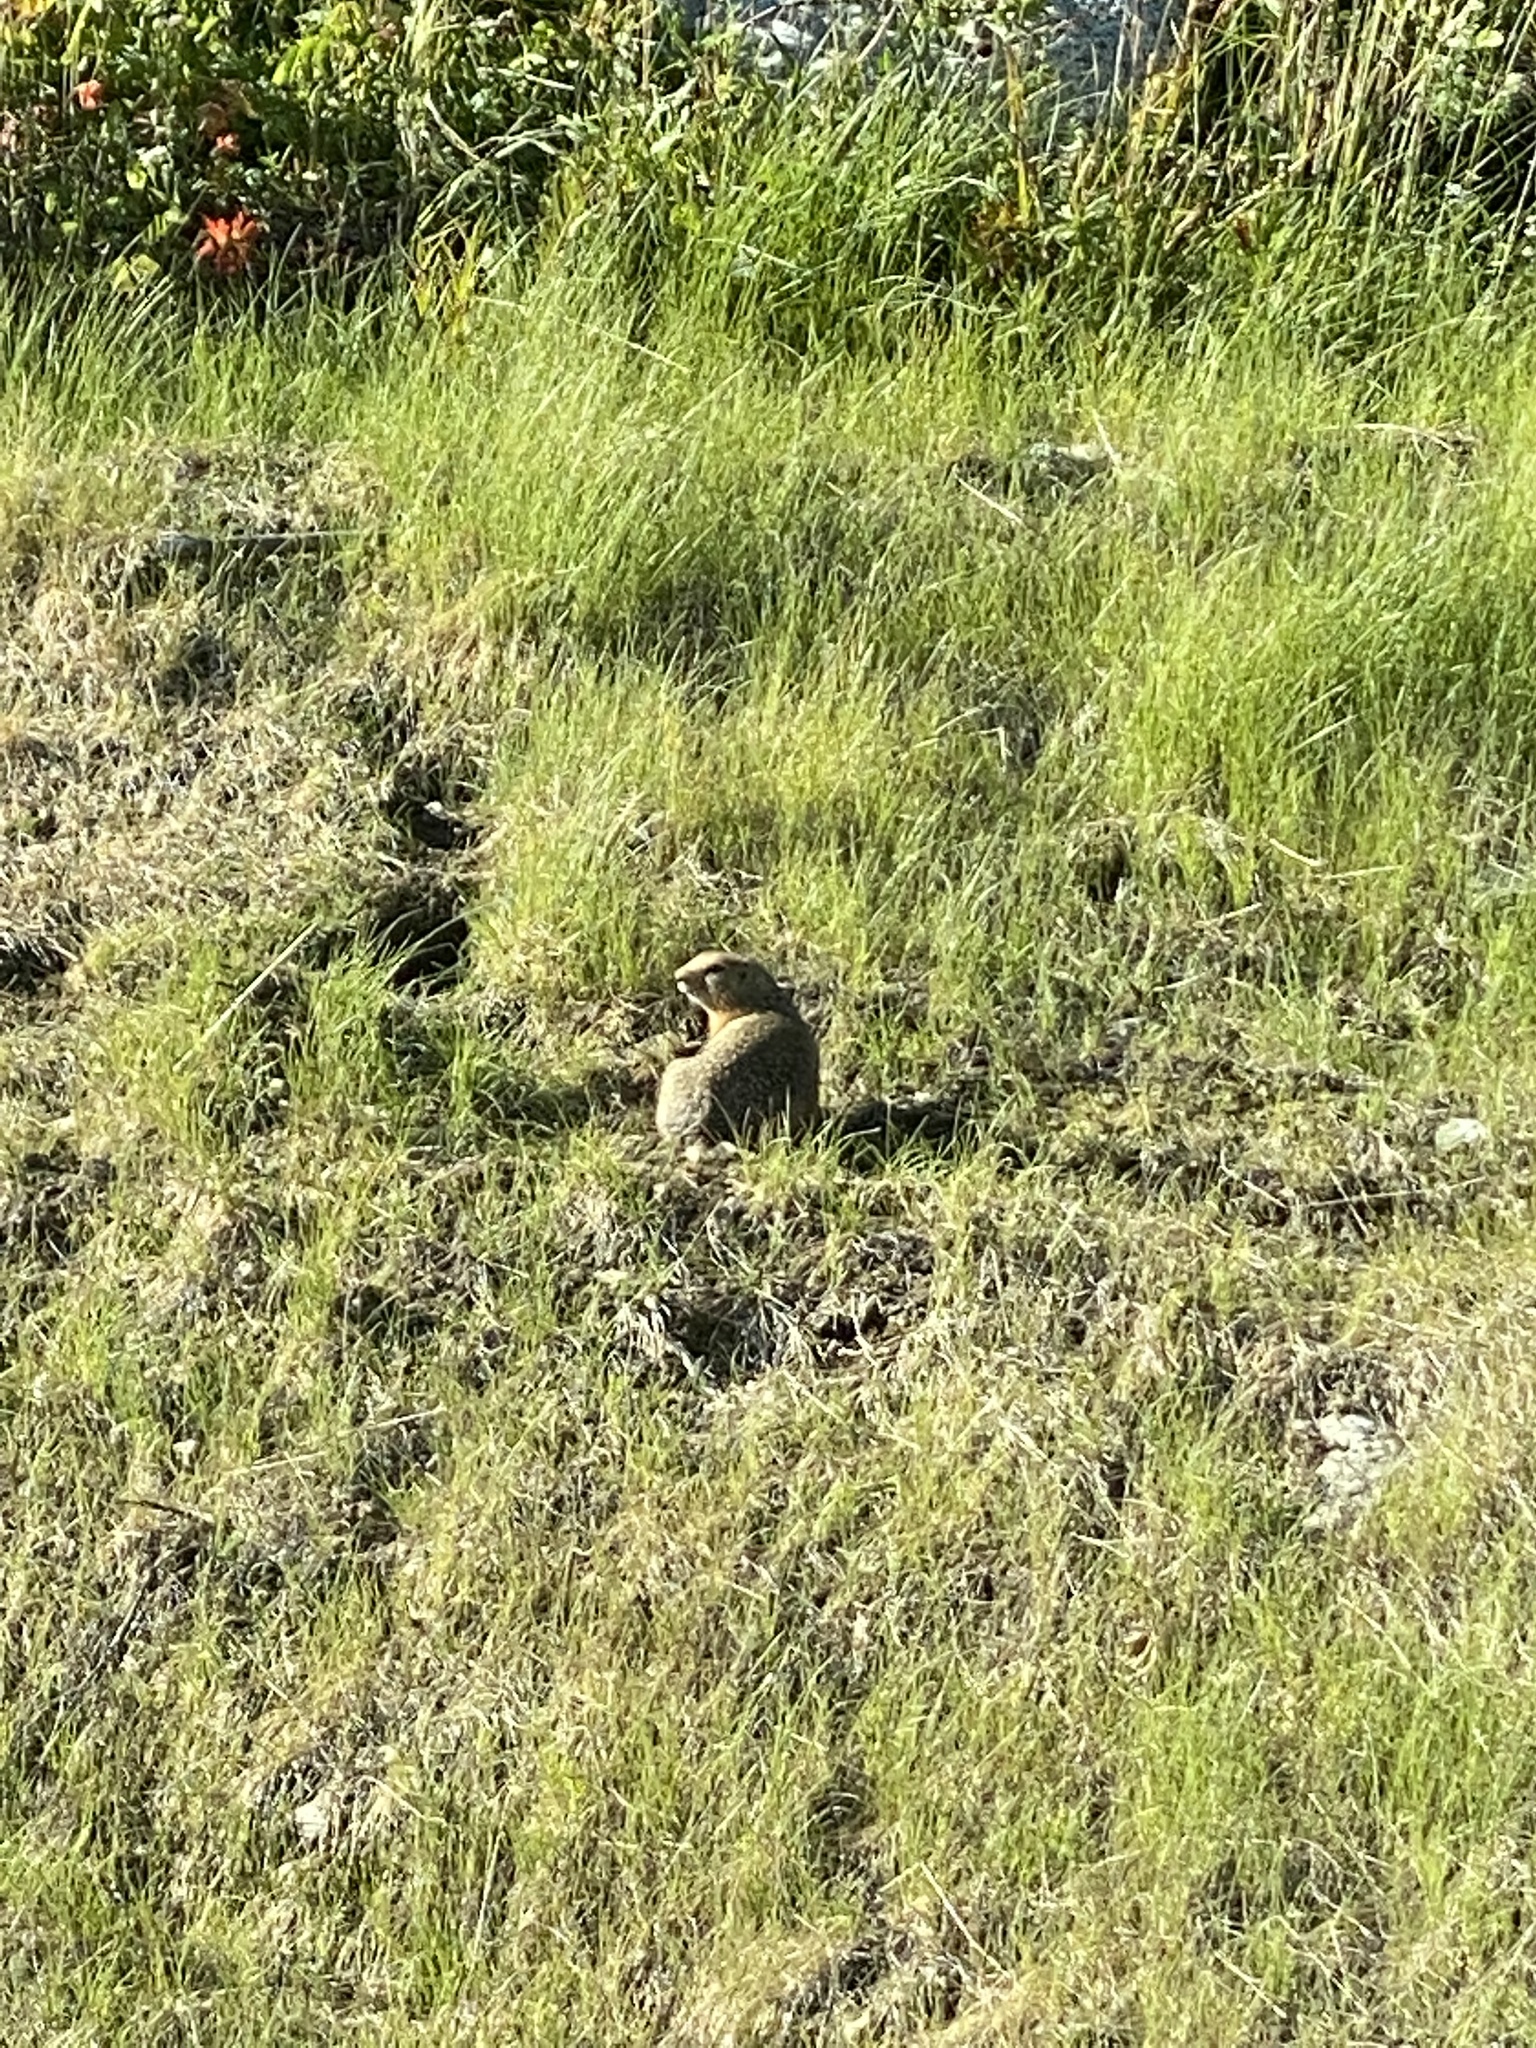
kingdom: Animalia
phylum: Chordata
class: Mammalia
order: Rodentia
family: Sciuridae
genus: Urocitellus
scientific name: Urocitellus parryii
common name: Arctic ground squirrel
